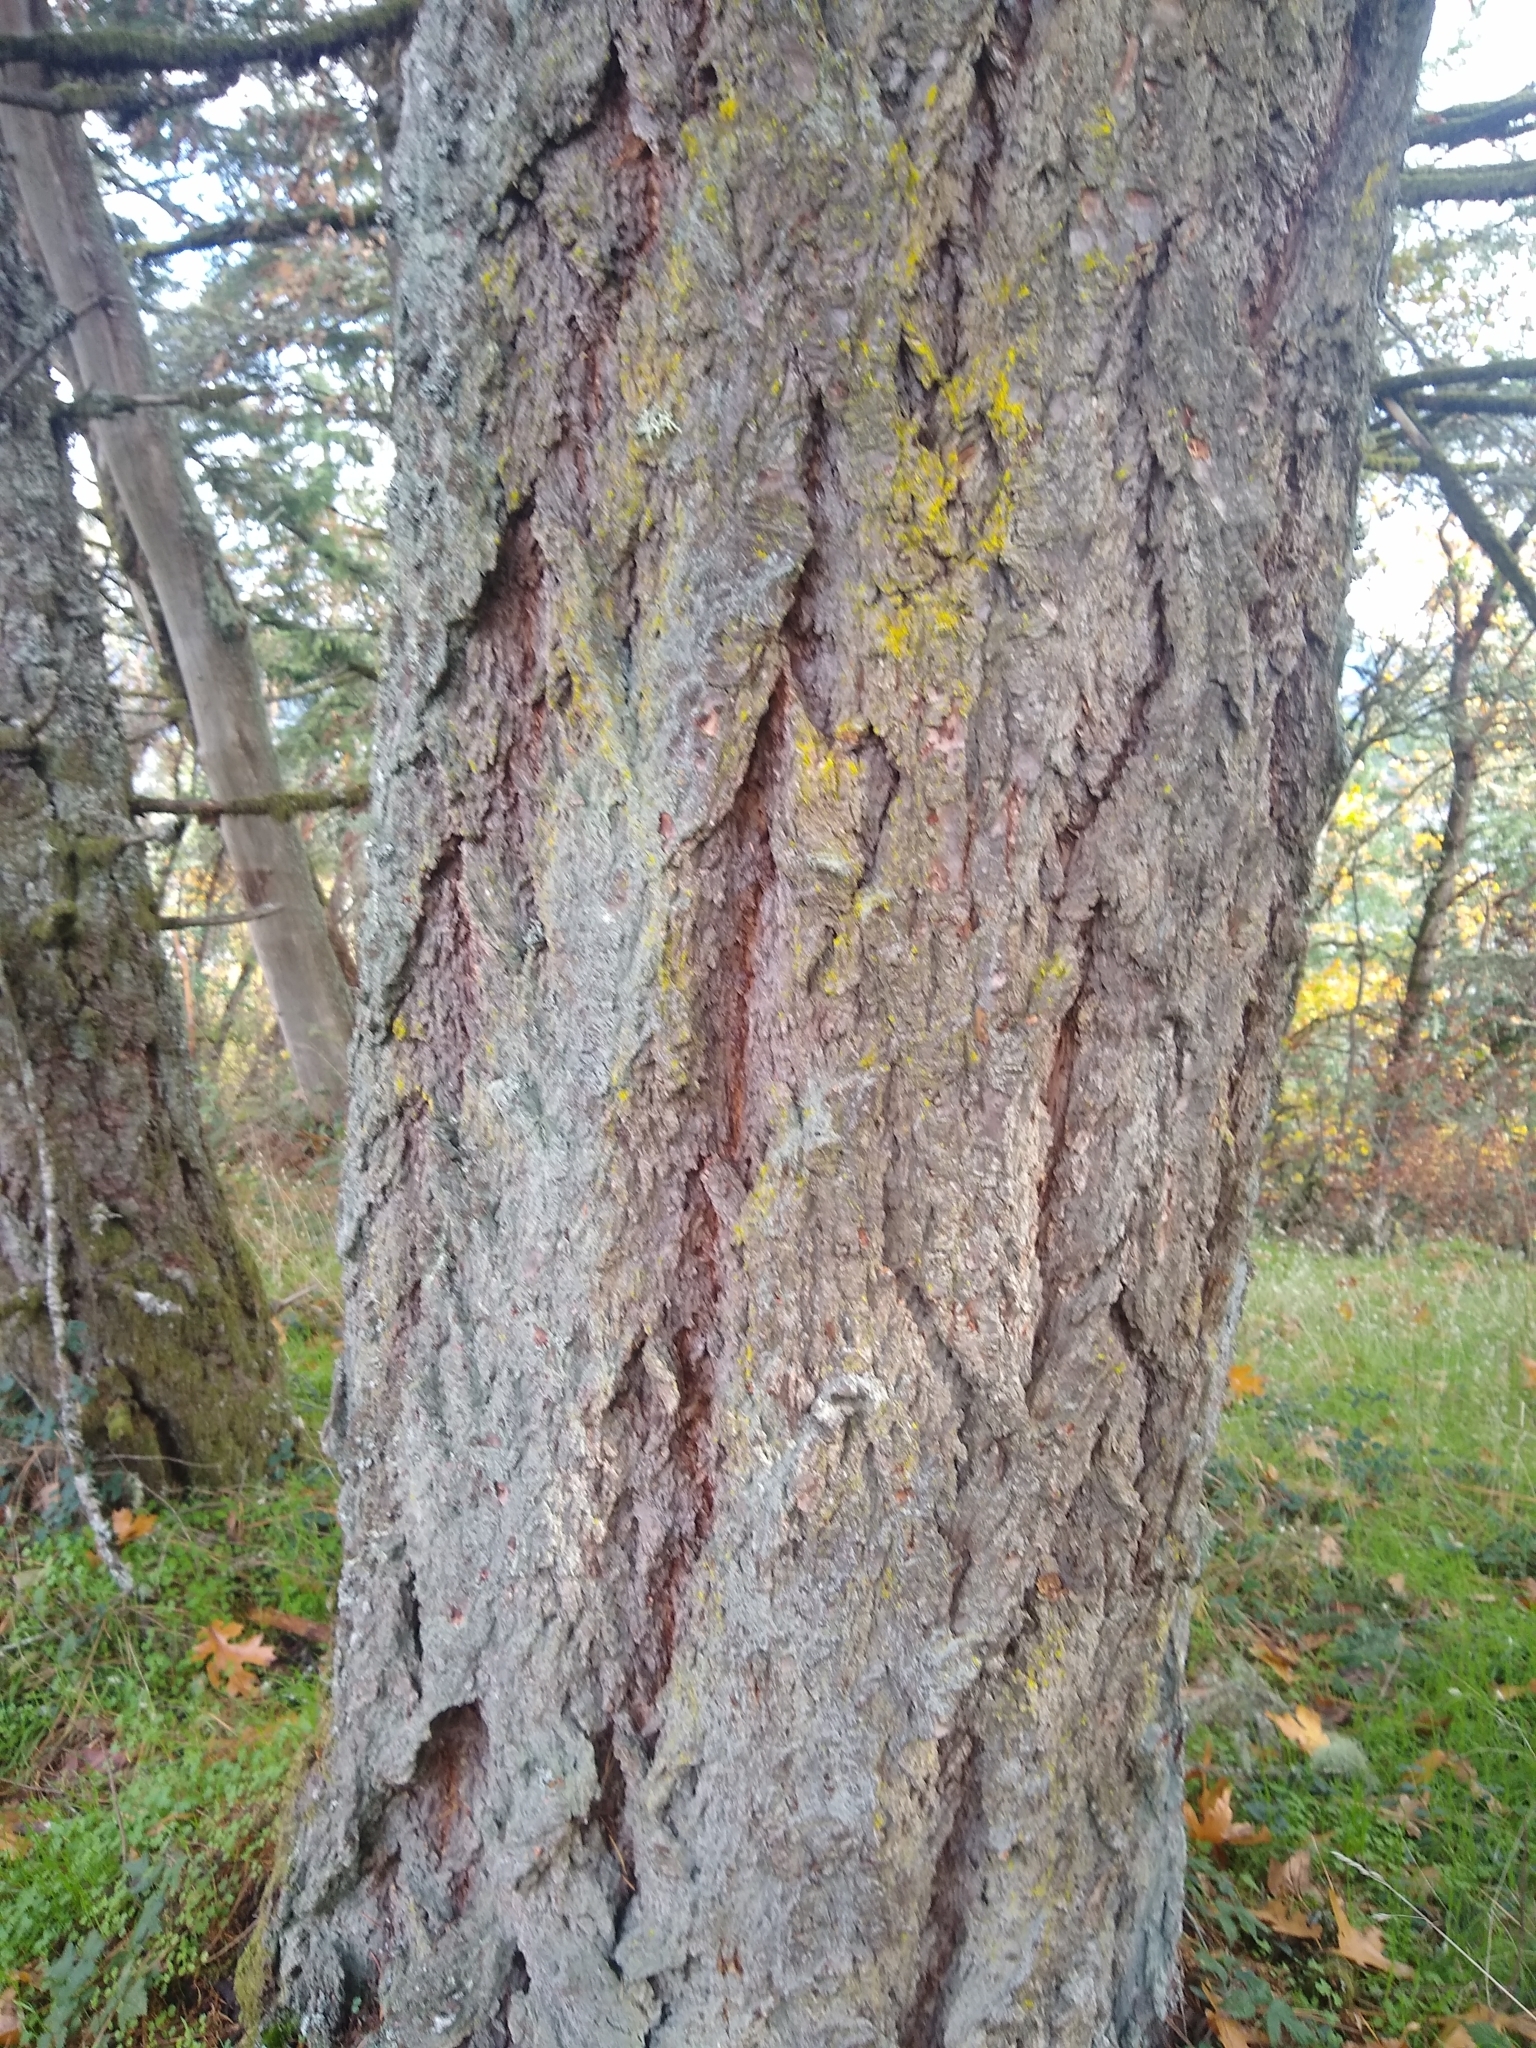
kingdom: Plantae
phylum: Tracheophyta
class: Pinopsida
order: Pinales
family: Pinaceae
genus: Pseudotsuga
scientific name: Pseudotsuga menziesii
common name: Douglas fir
